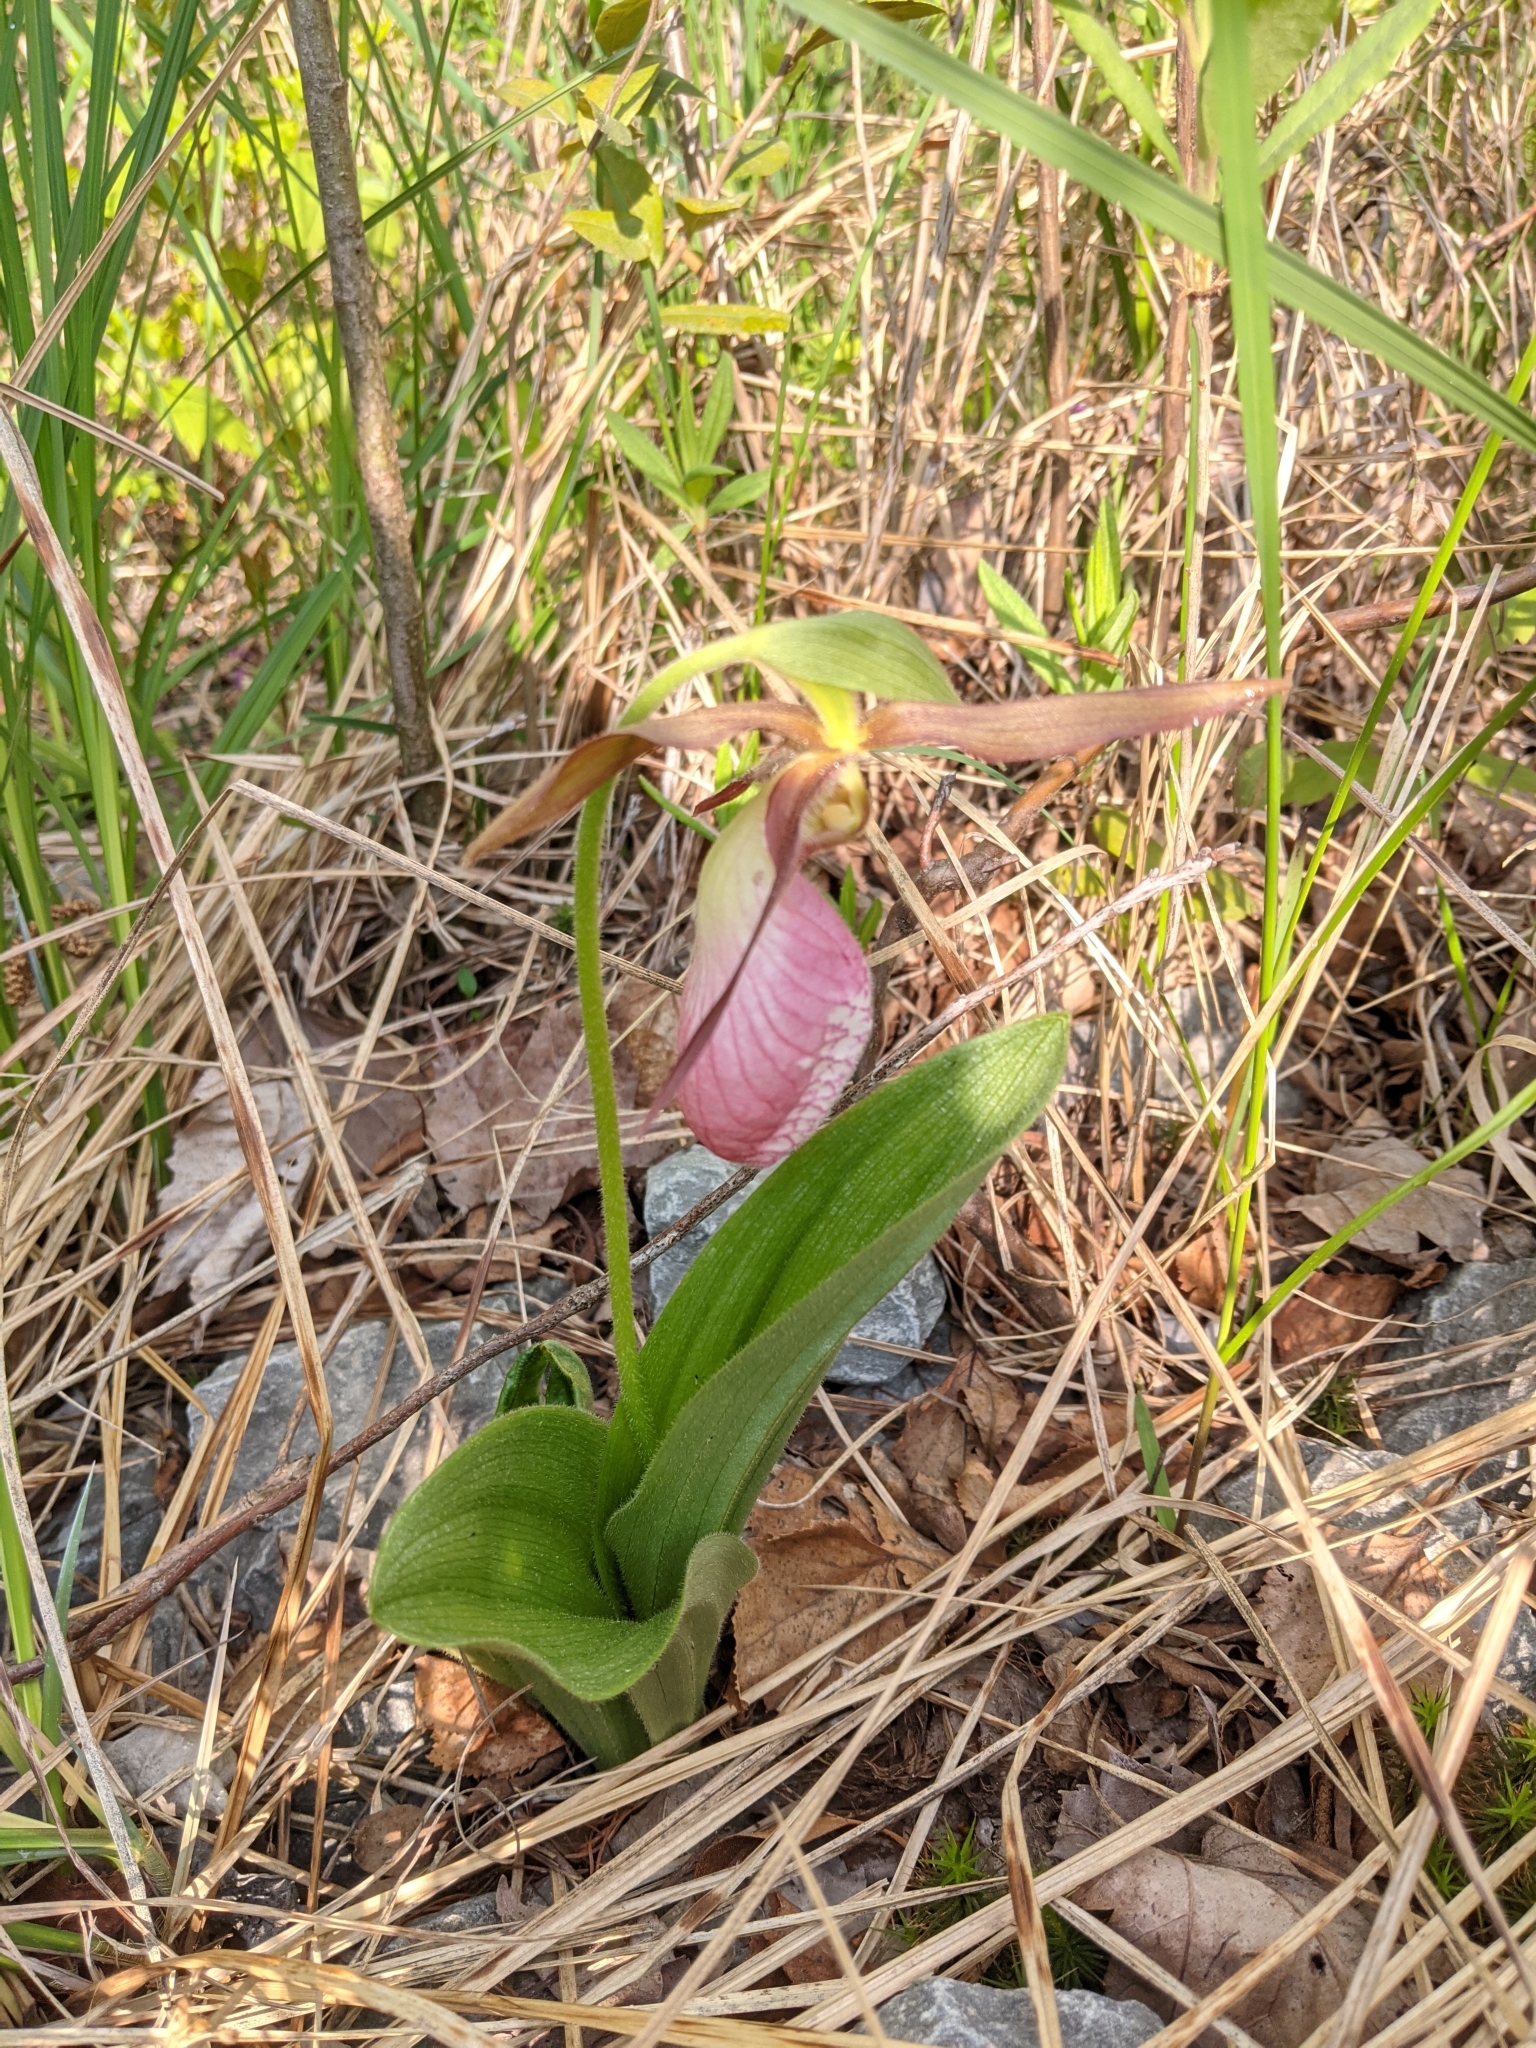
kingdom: Plantae
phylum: Tracheophyta
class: Liliopsida
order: Asparagales
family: Orchidaceae
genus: Cypripedium
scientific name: Cypripedium acaule
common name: Pink lady's-slipper
